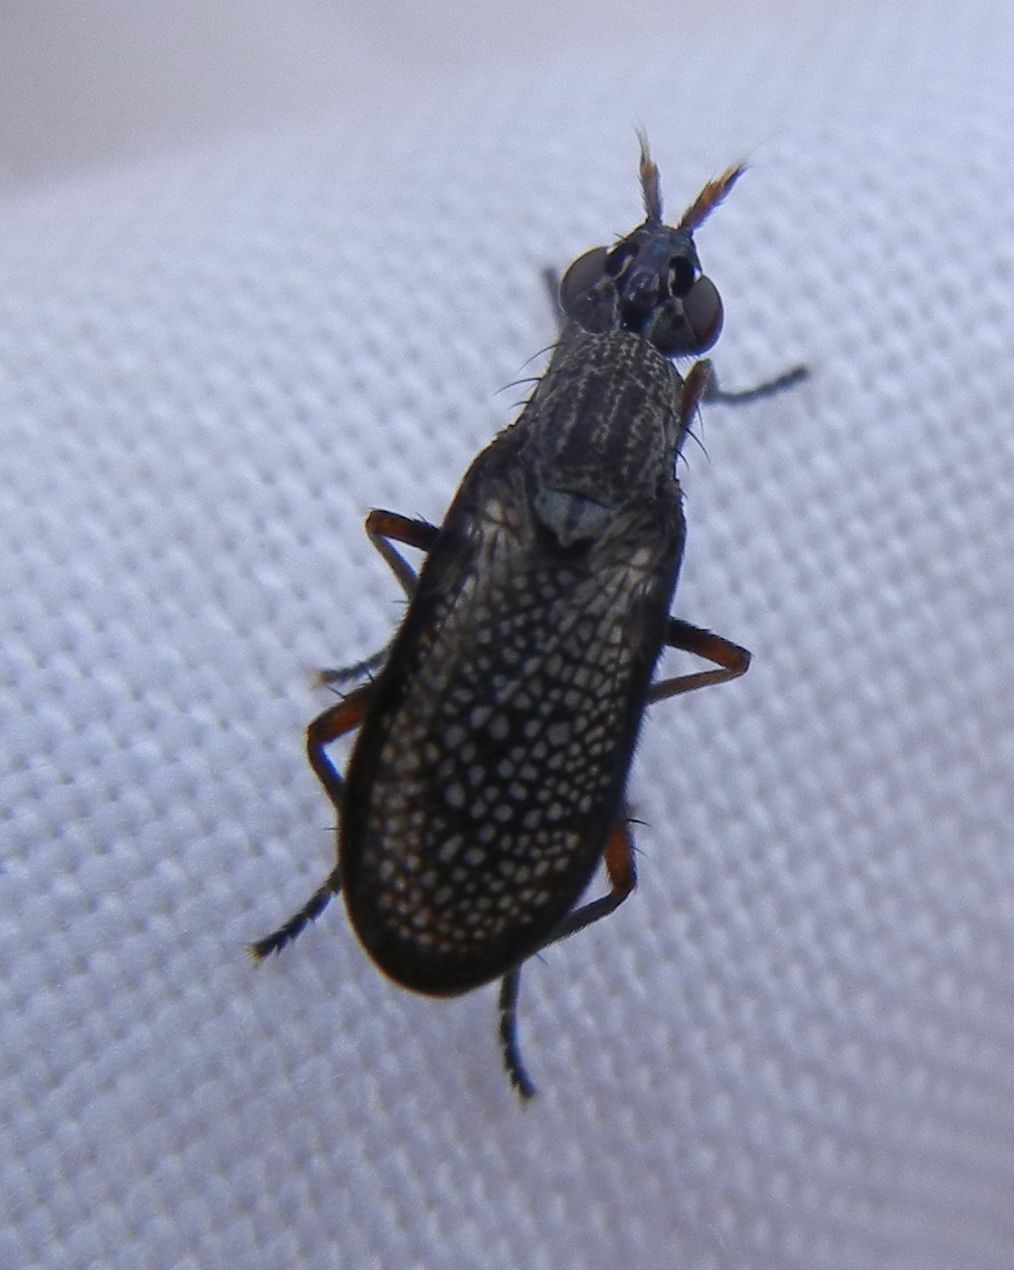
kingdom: Animalia
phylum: Arthropoda
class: Insecta
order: Diptera
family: Sciomyzidae
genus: Coremacera
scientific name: Coremacera marginata
